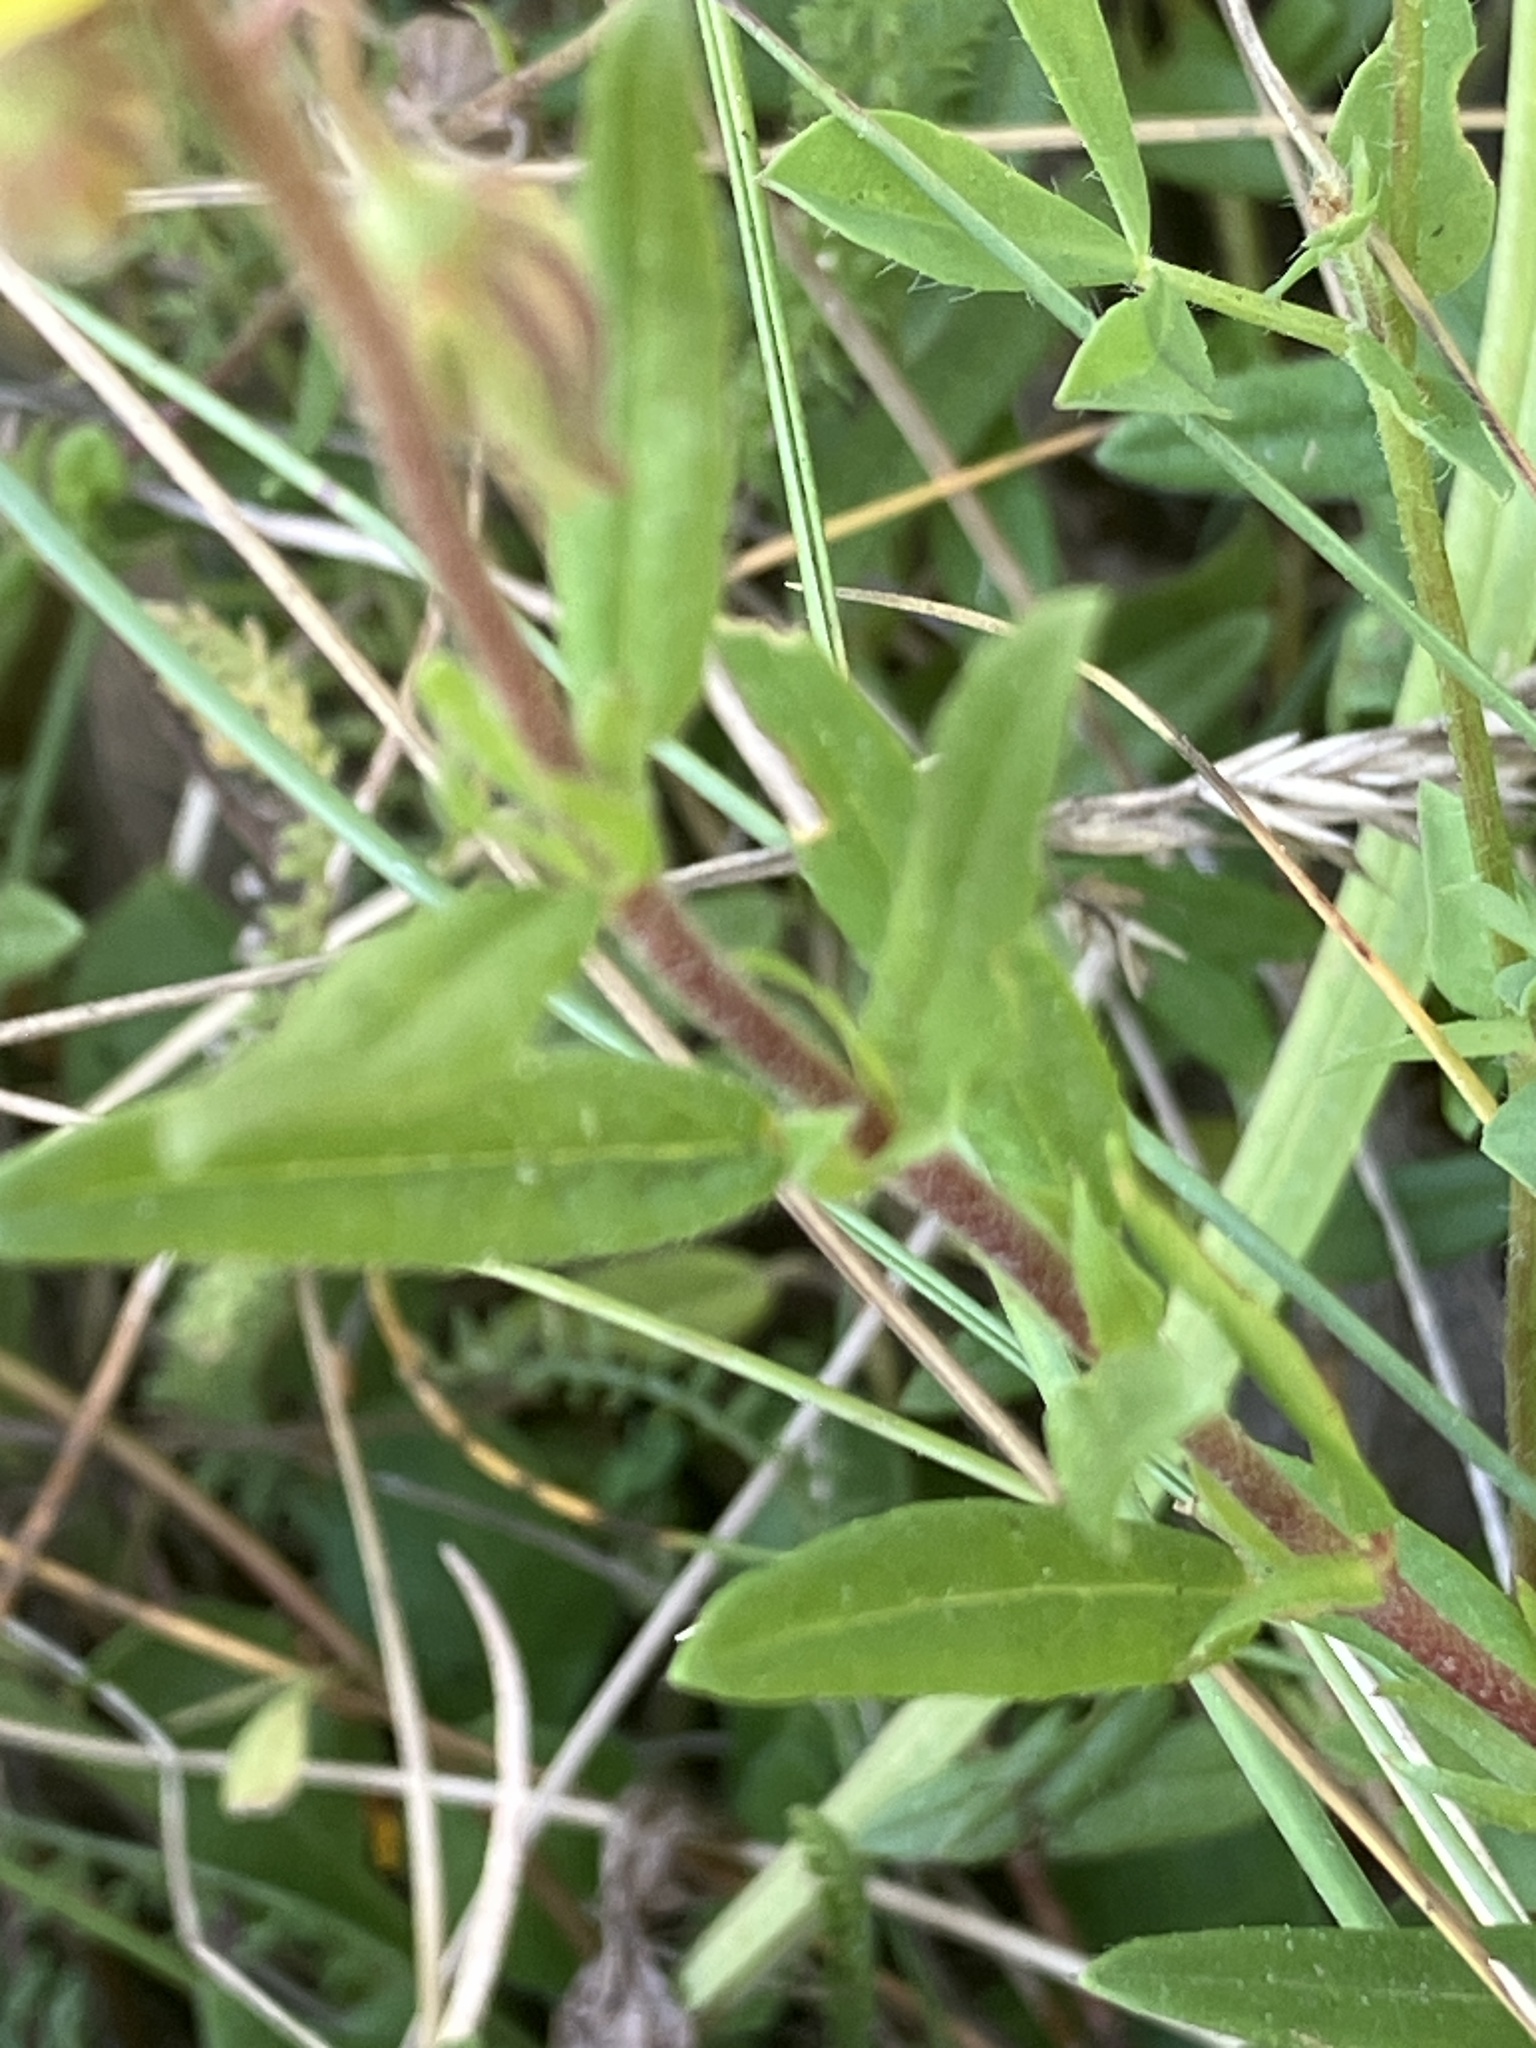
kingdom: Plantae
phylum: Tracheophyta
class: Magnoliopsida
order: Malvales
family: Cistaceae
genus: Helianthemum
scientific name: Helianthemum nummularium
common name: Common rock-rose
